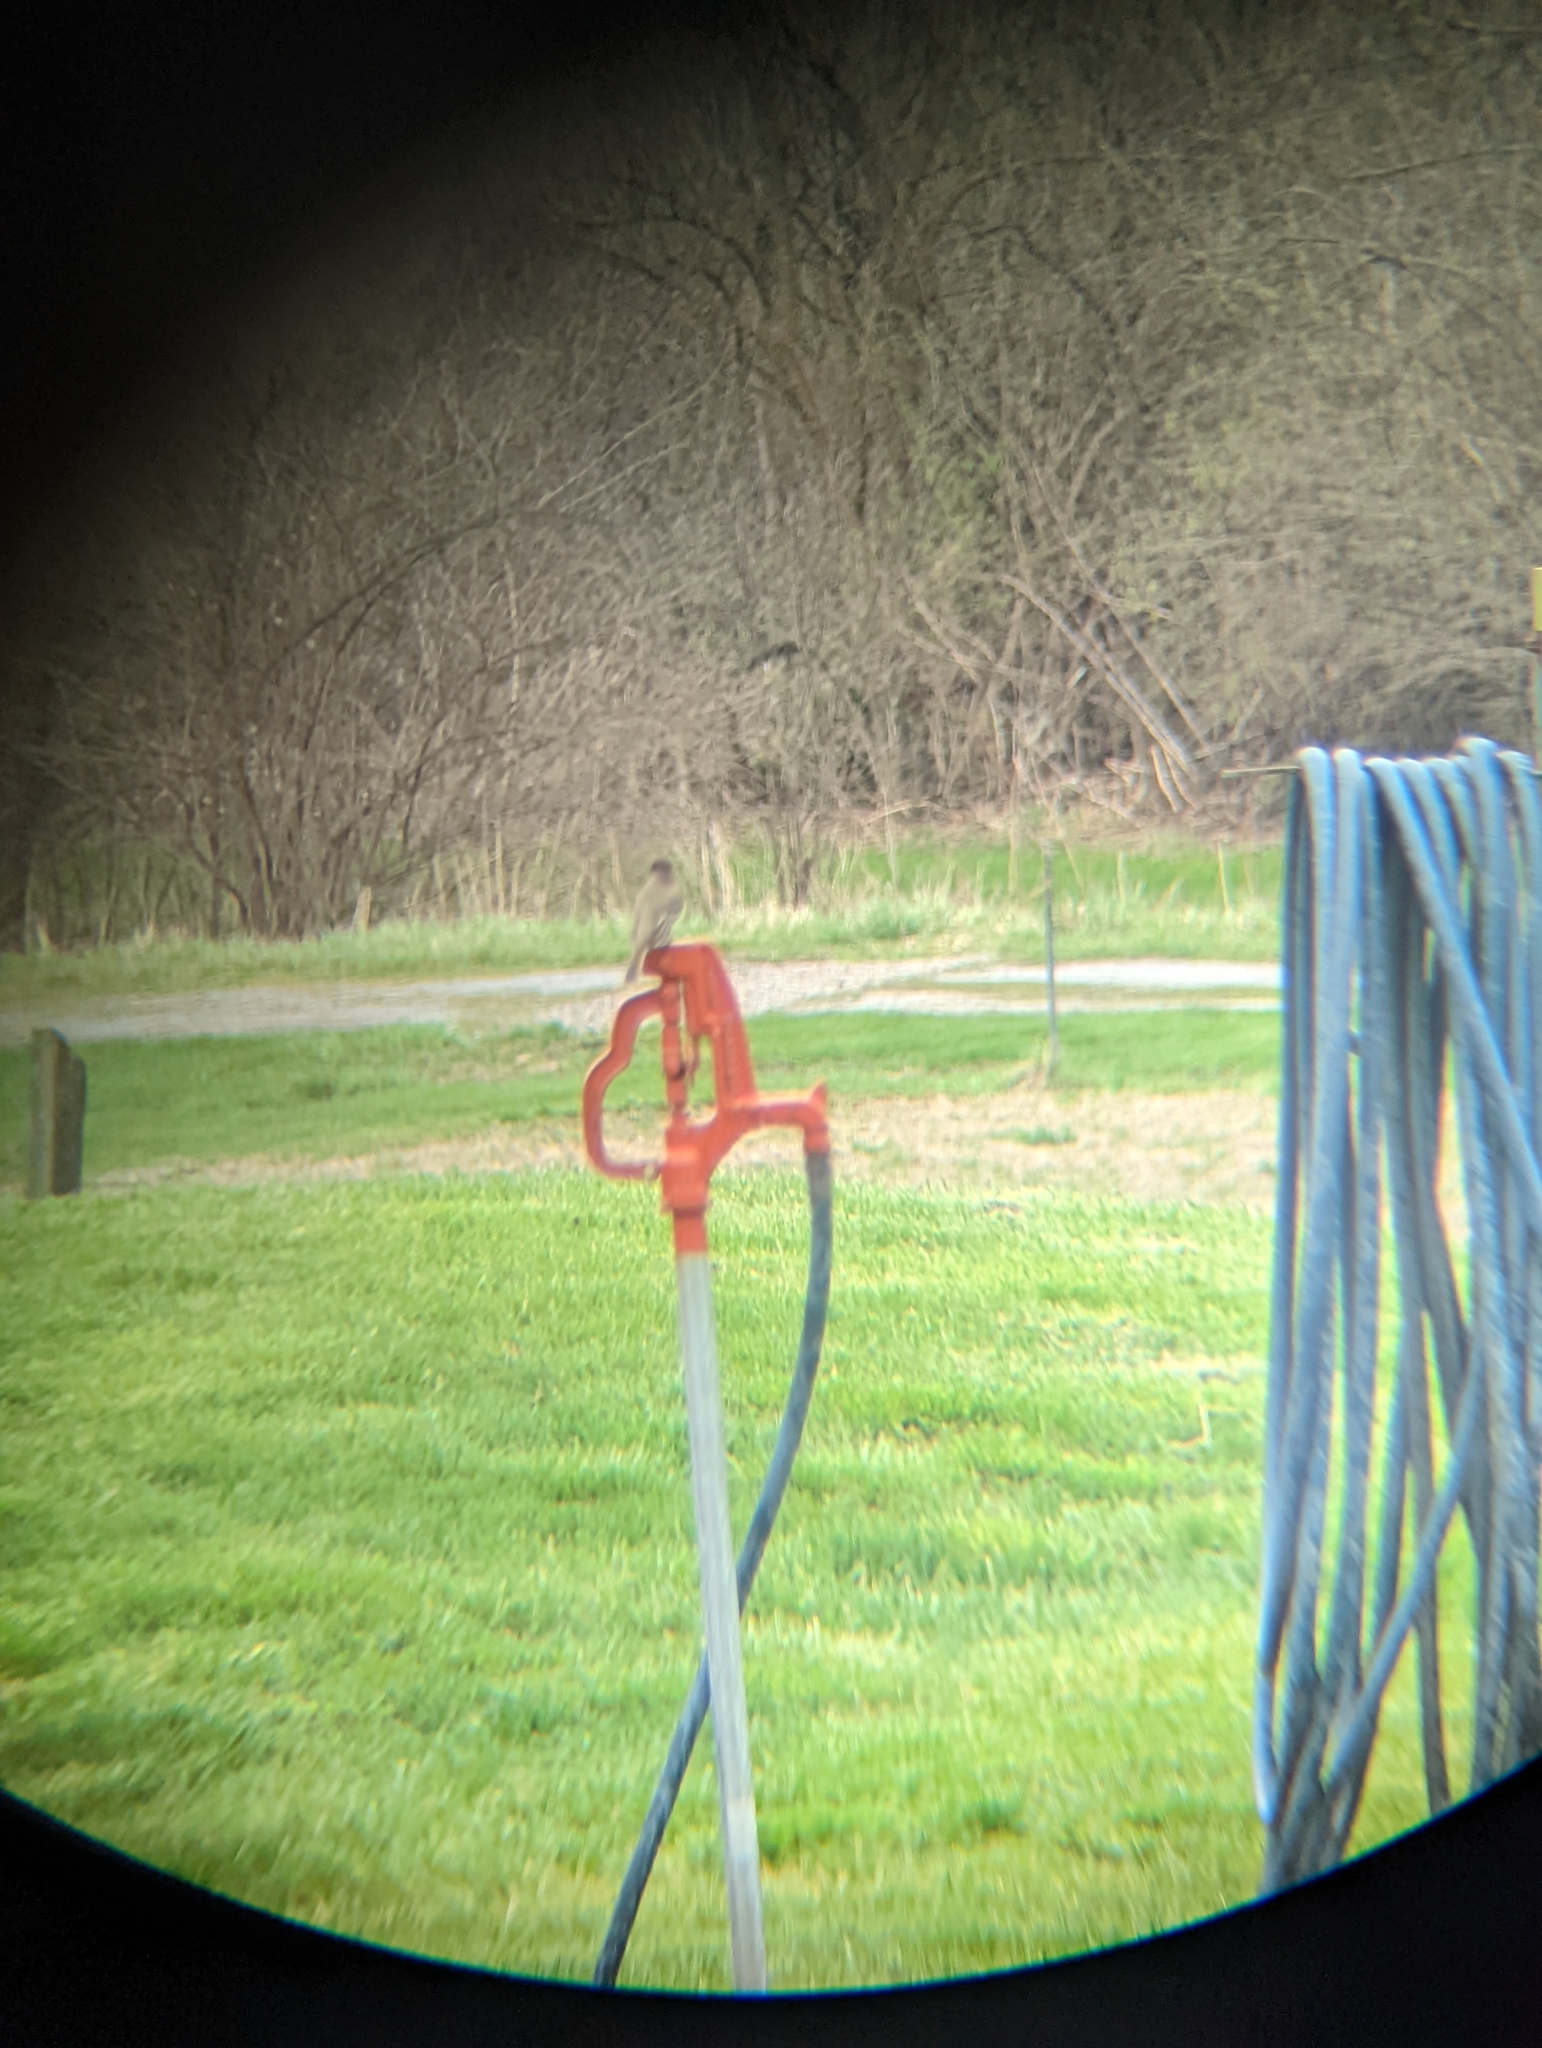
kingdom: Animalia
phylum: Chordata
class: Aves
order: Passeriformes
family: Tyrannidae
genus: Sayornis
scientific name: Sayornis phoebe
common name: Eastern phoebe
